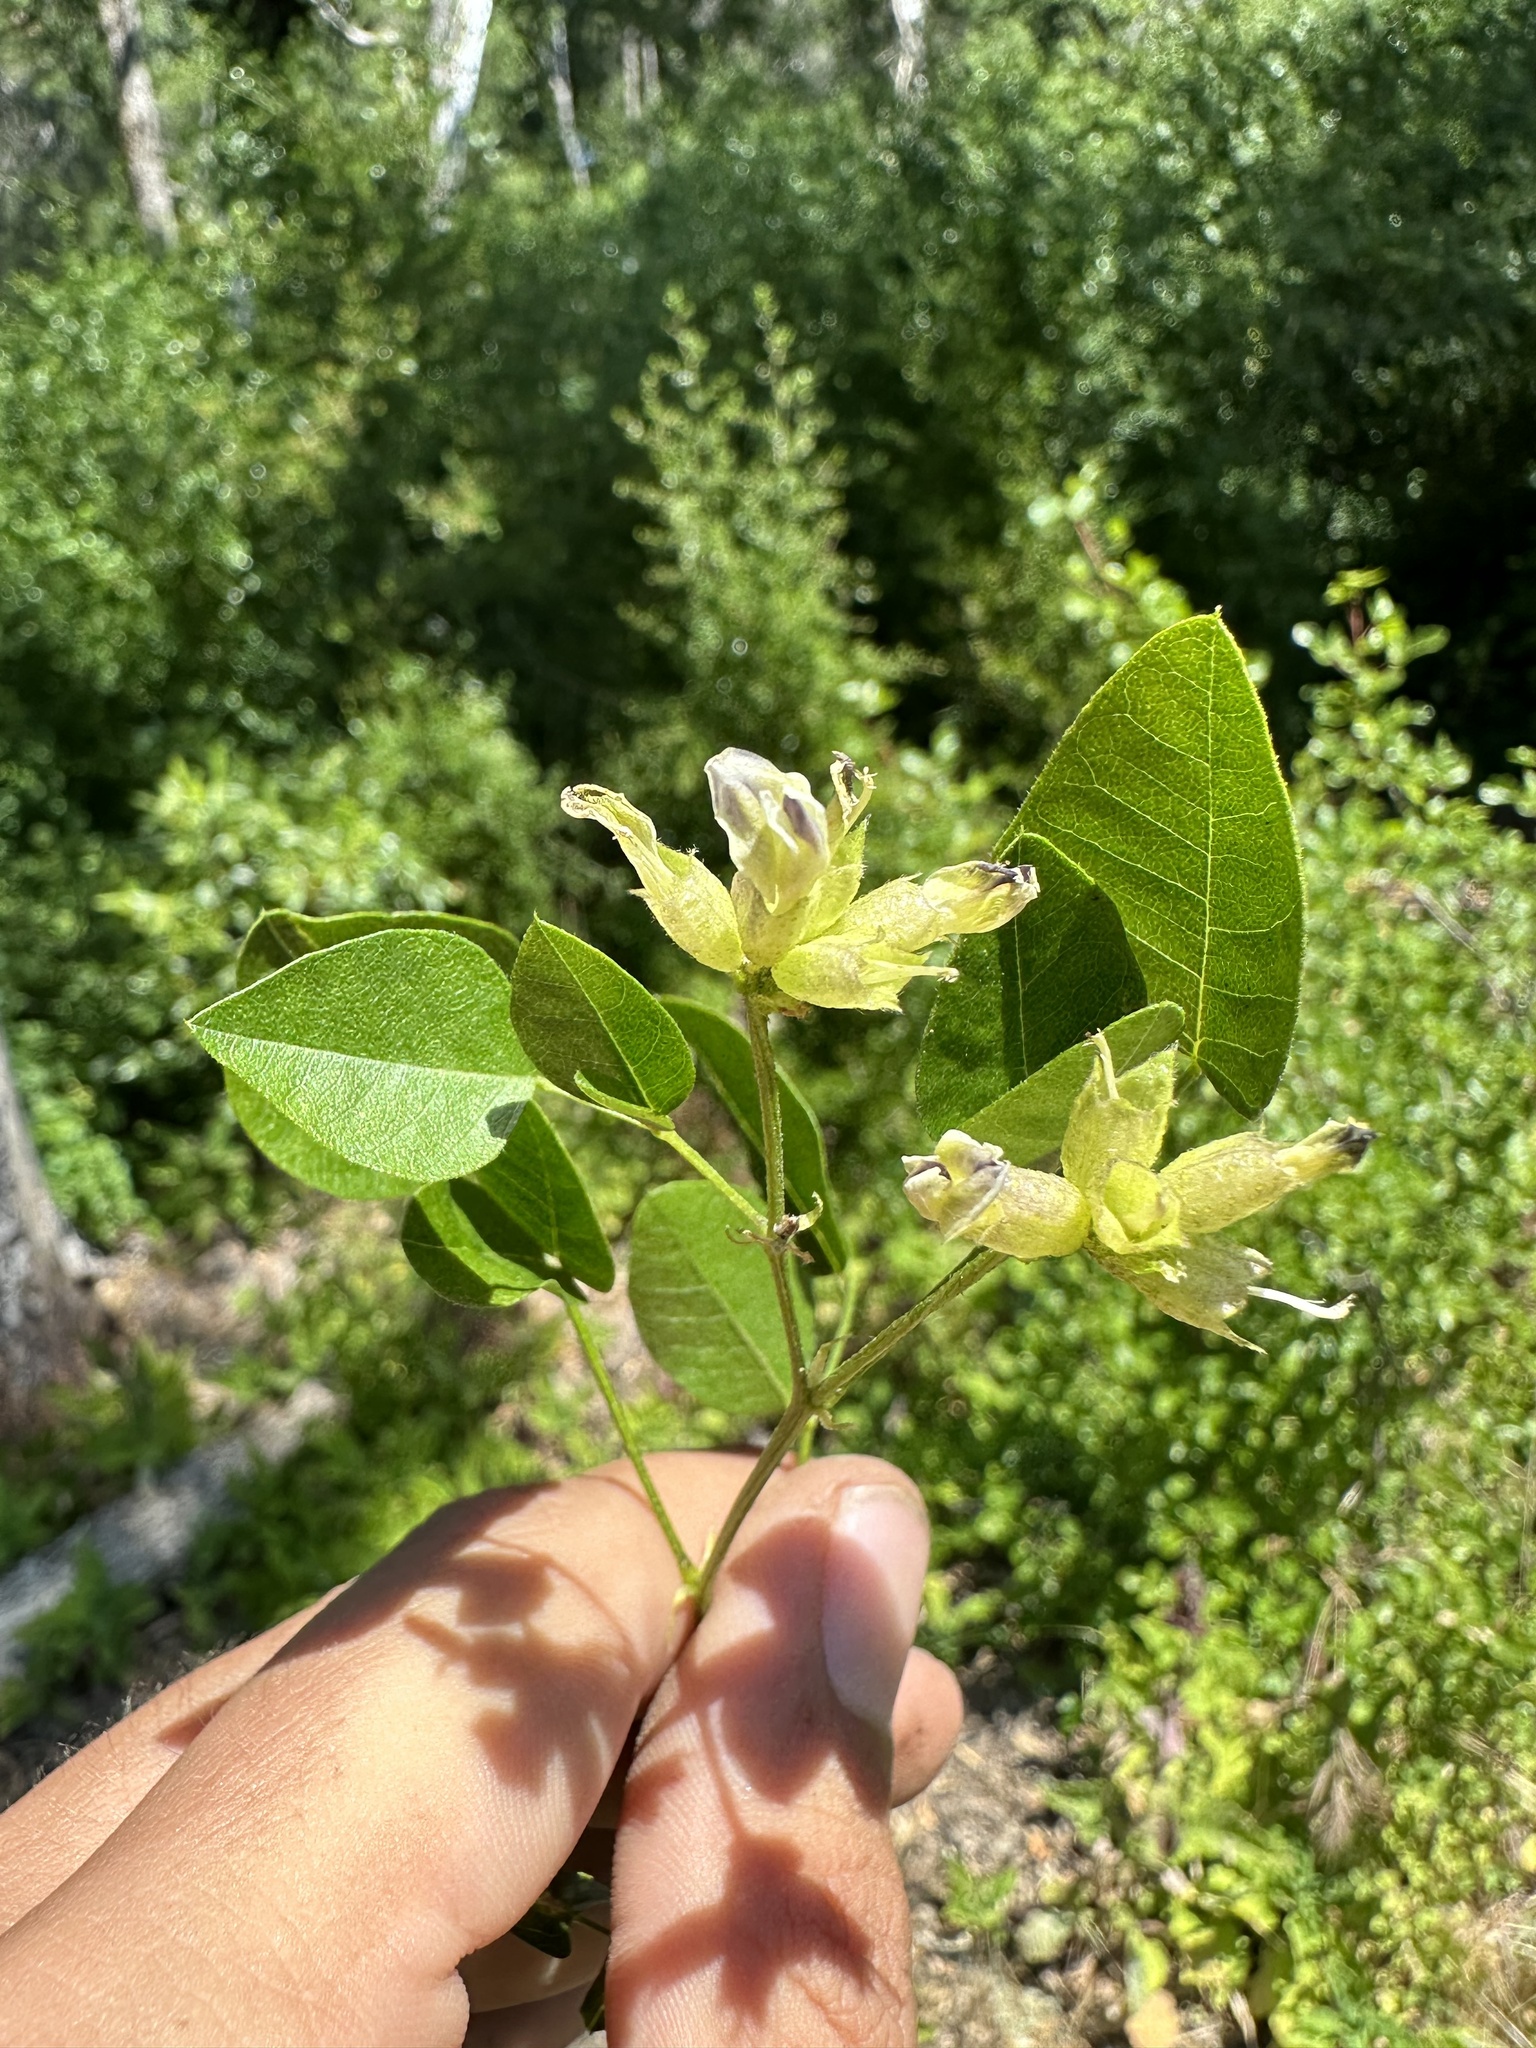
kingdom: Plantae
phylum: Tracheophyta
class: Magnoliopsida
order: Fabales
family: Fabaceae
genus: Rupertia
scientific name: Rupertia physodes
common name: California-tea
